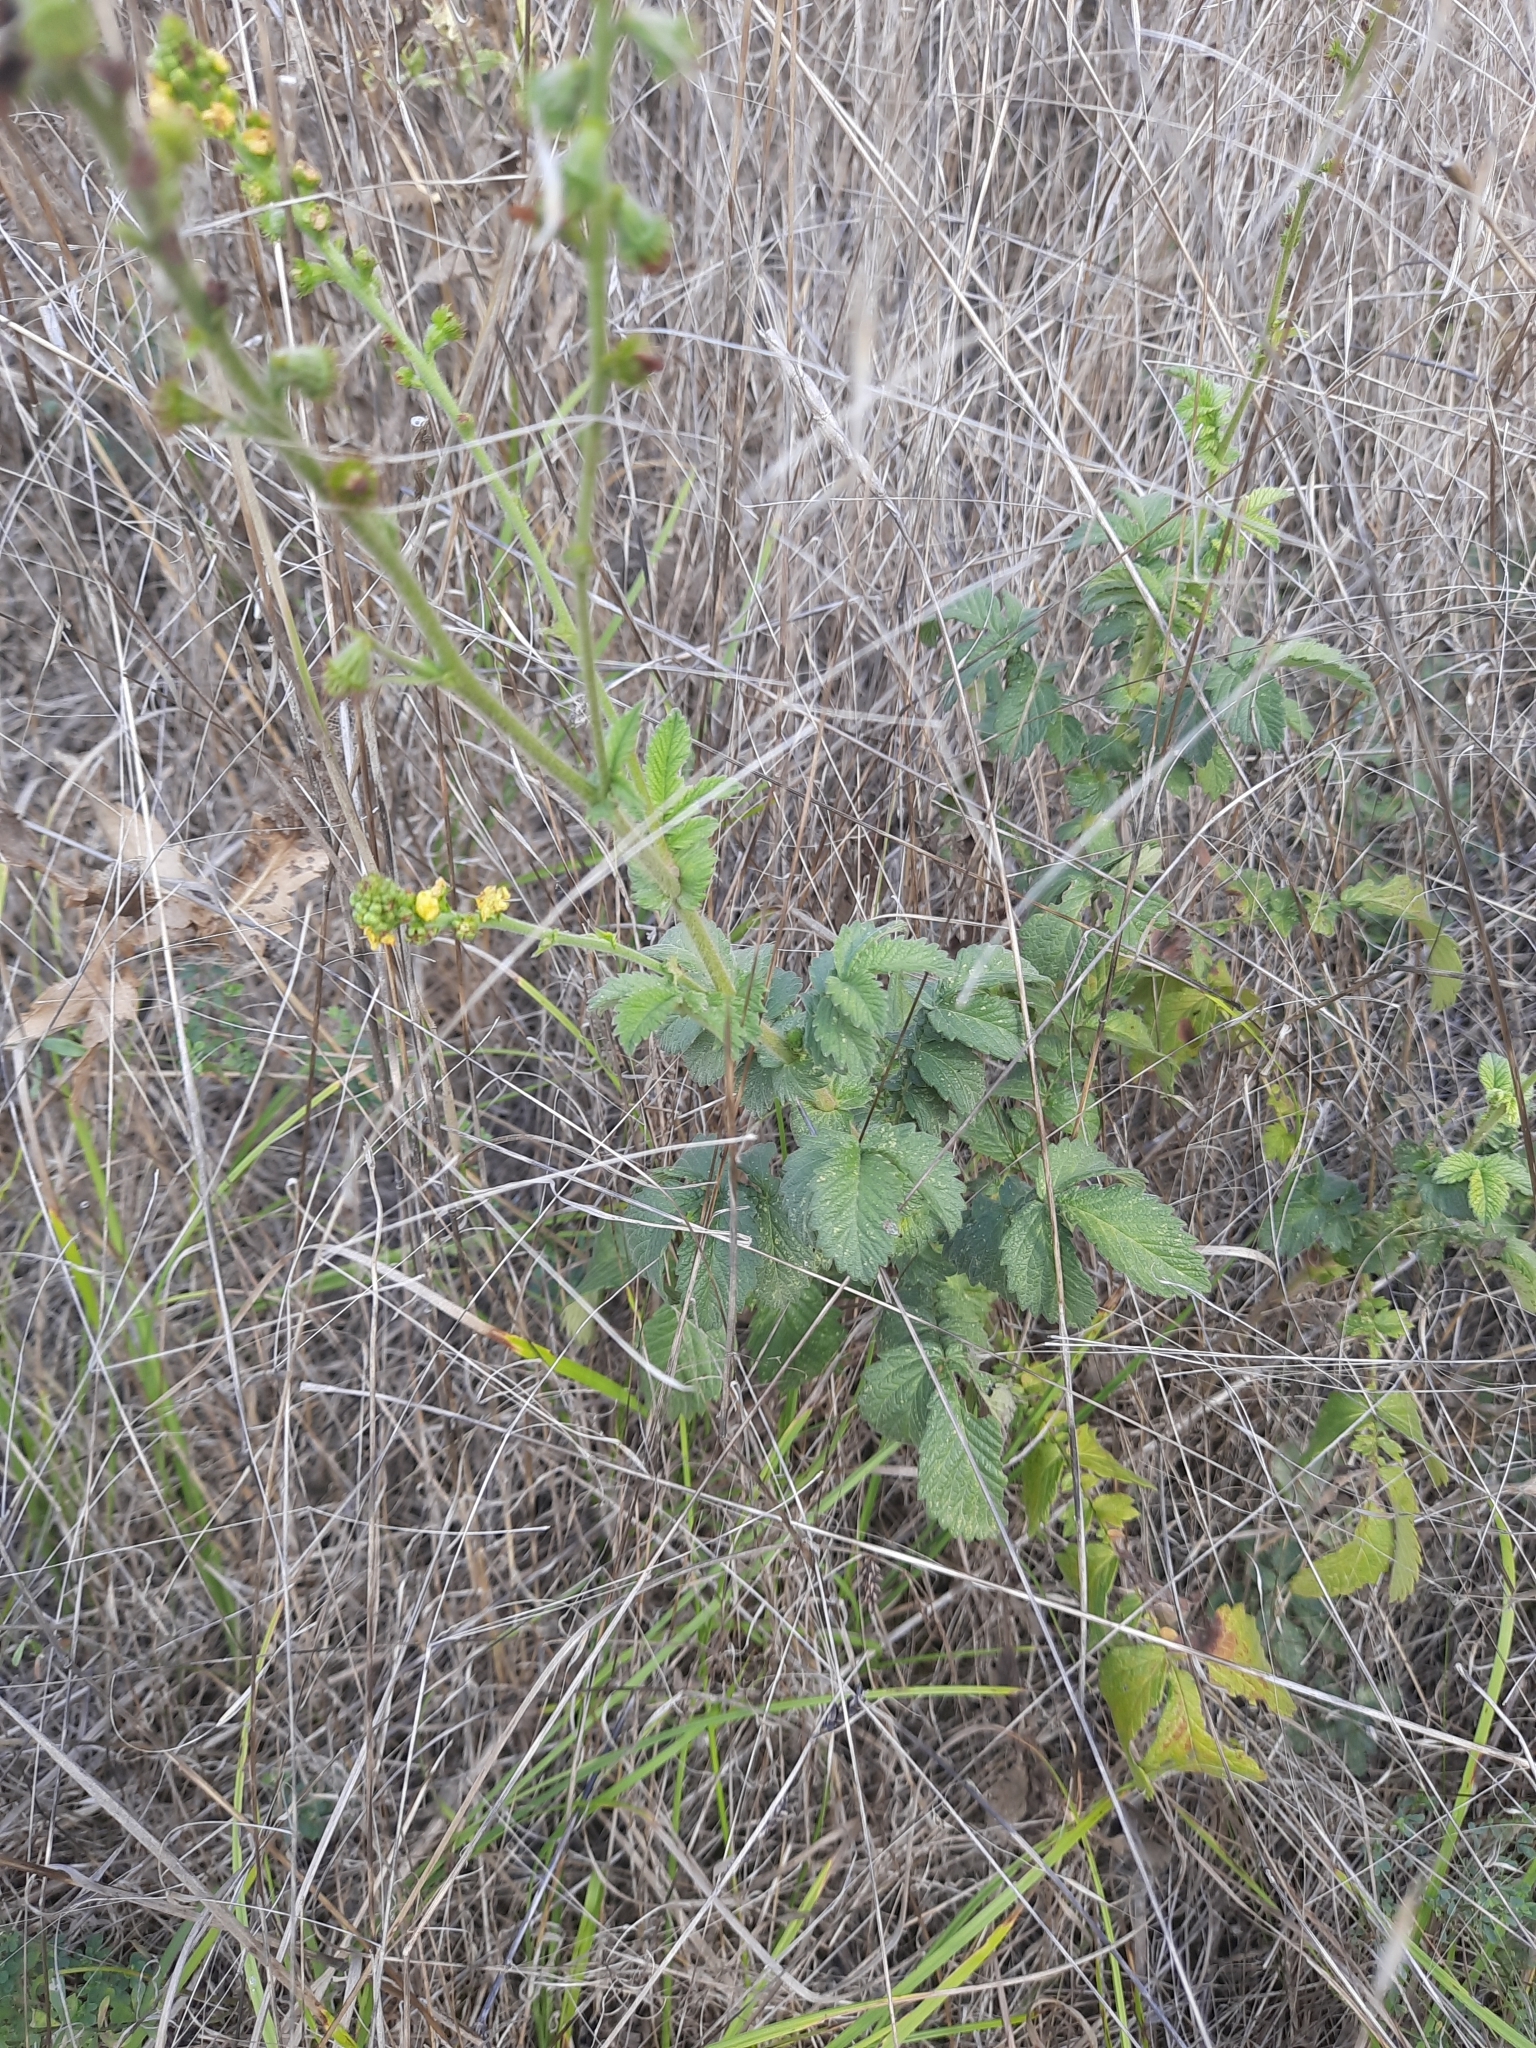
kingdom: Plantae
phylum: Tracheophyta
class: Magnoliopsida
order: Rosales
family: Rosaceae
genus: Agrimonia
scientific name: Agrimonia eupatoria
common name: Agrimony
